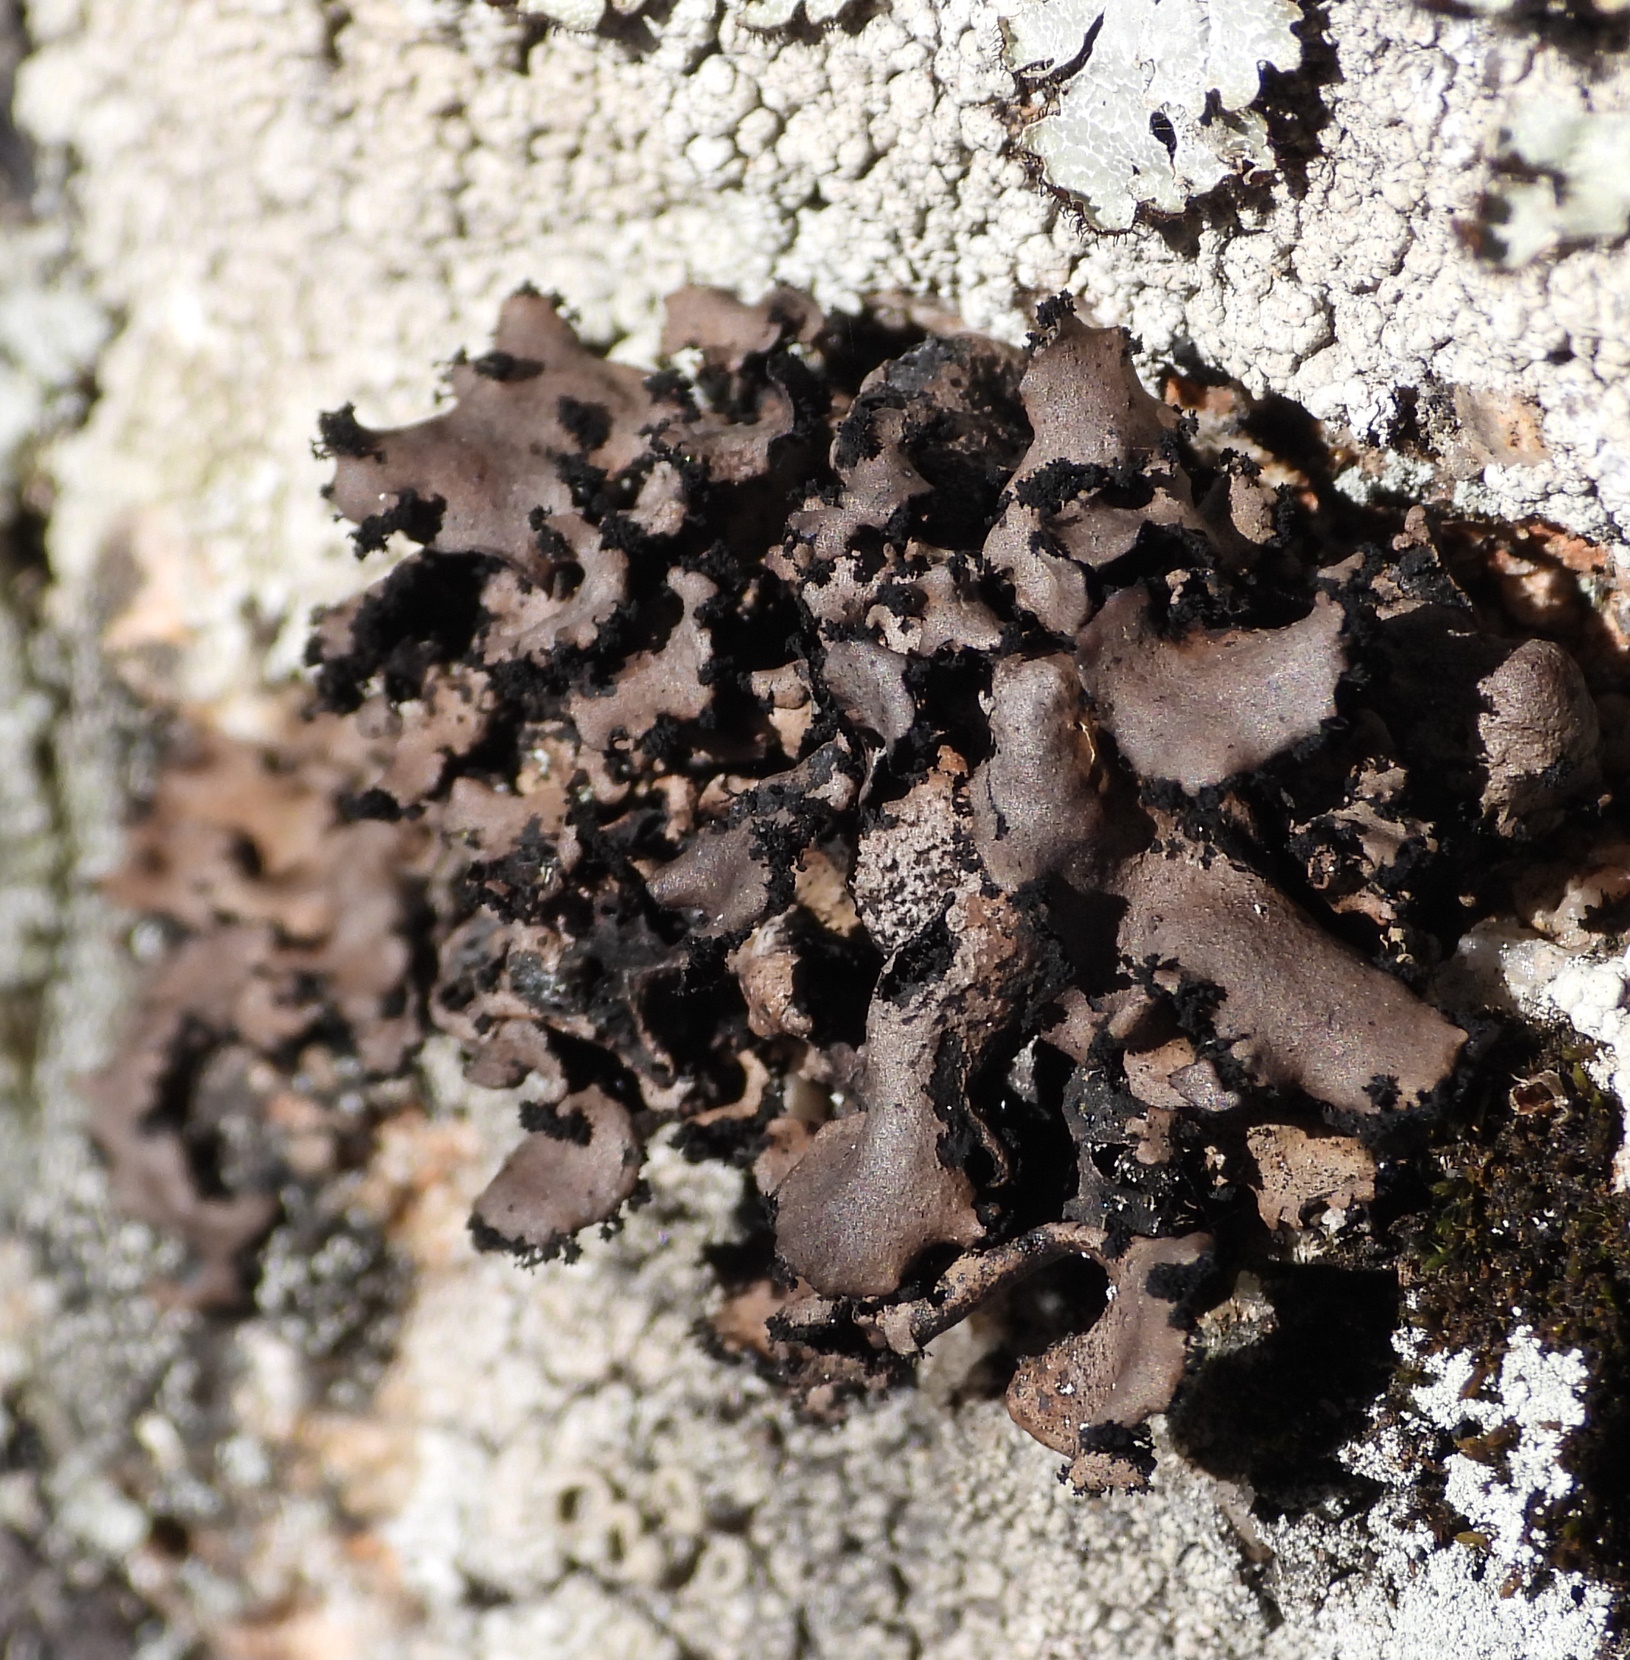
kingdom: Fungi
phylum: Ascomycota
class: Lecanoromycetes
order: Umbilicariales
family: Umbilicariaceae
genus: Umbilicaria
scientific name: Umbilicaria polyrrhiza
